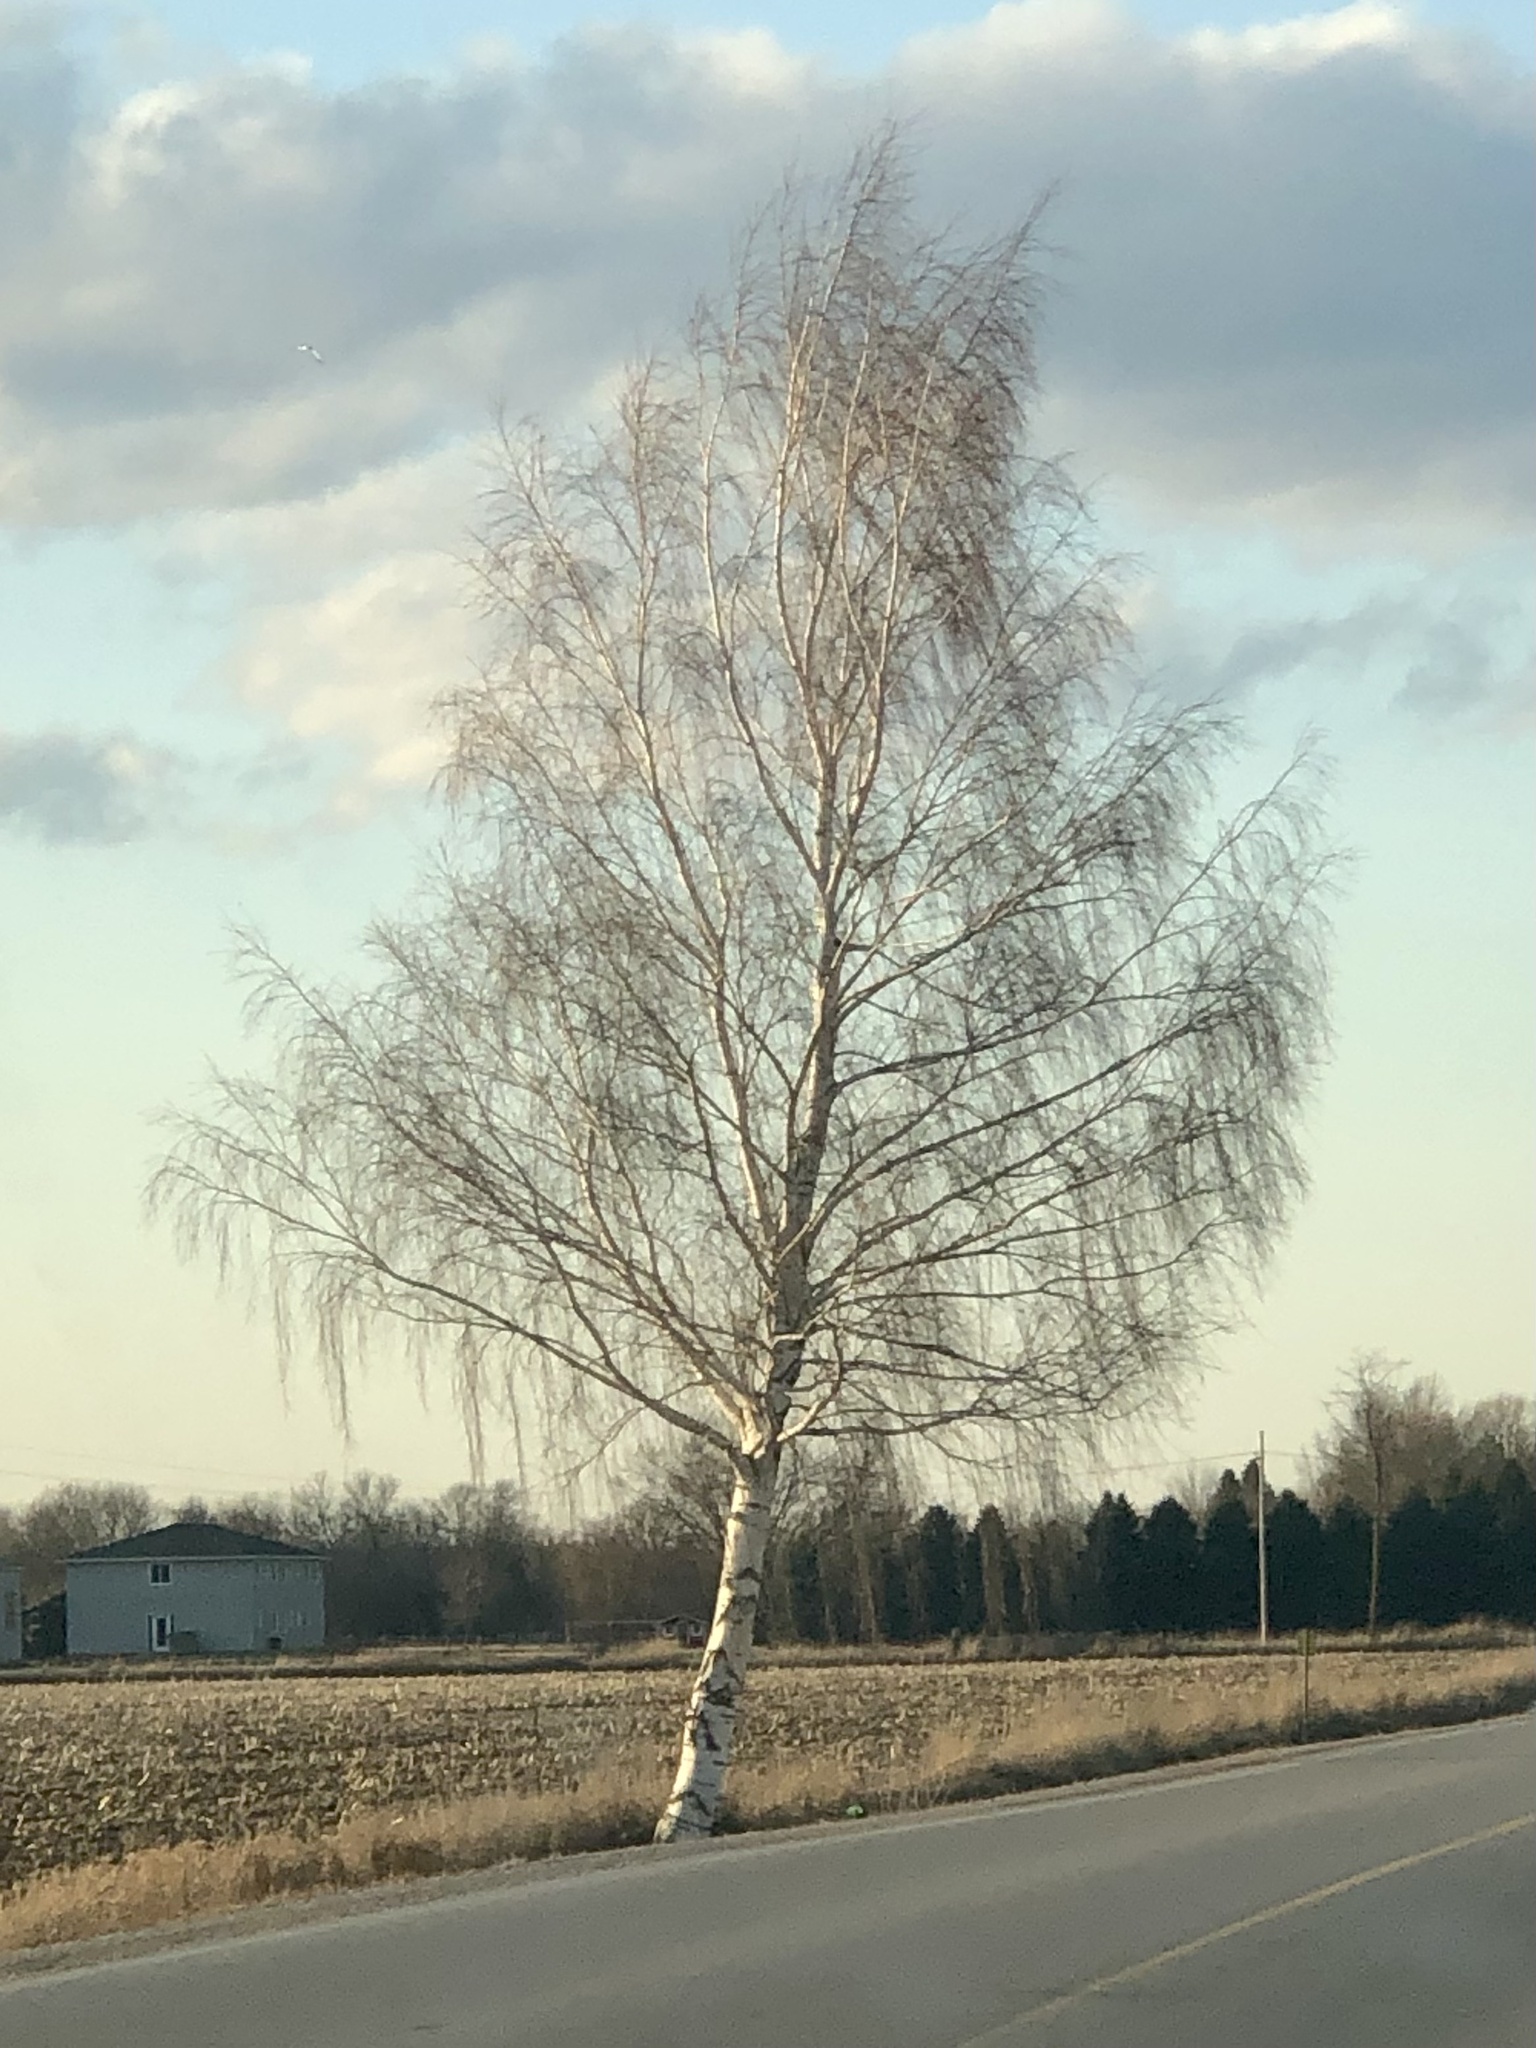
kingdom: Plantae
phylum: Tracheophyta
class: Magnoliopsida
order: Fagales
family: Betulaceae
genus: Betula
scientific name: Betula pendula
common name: Silver birch
